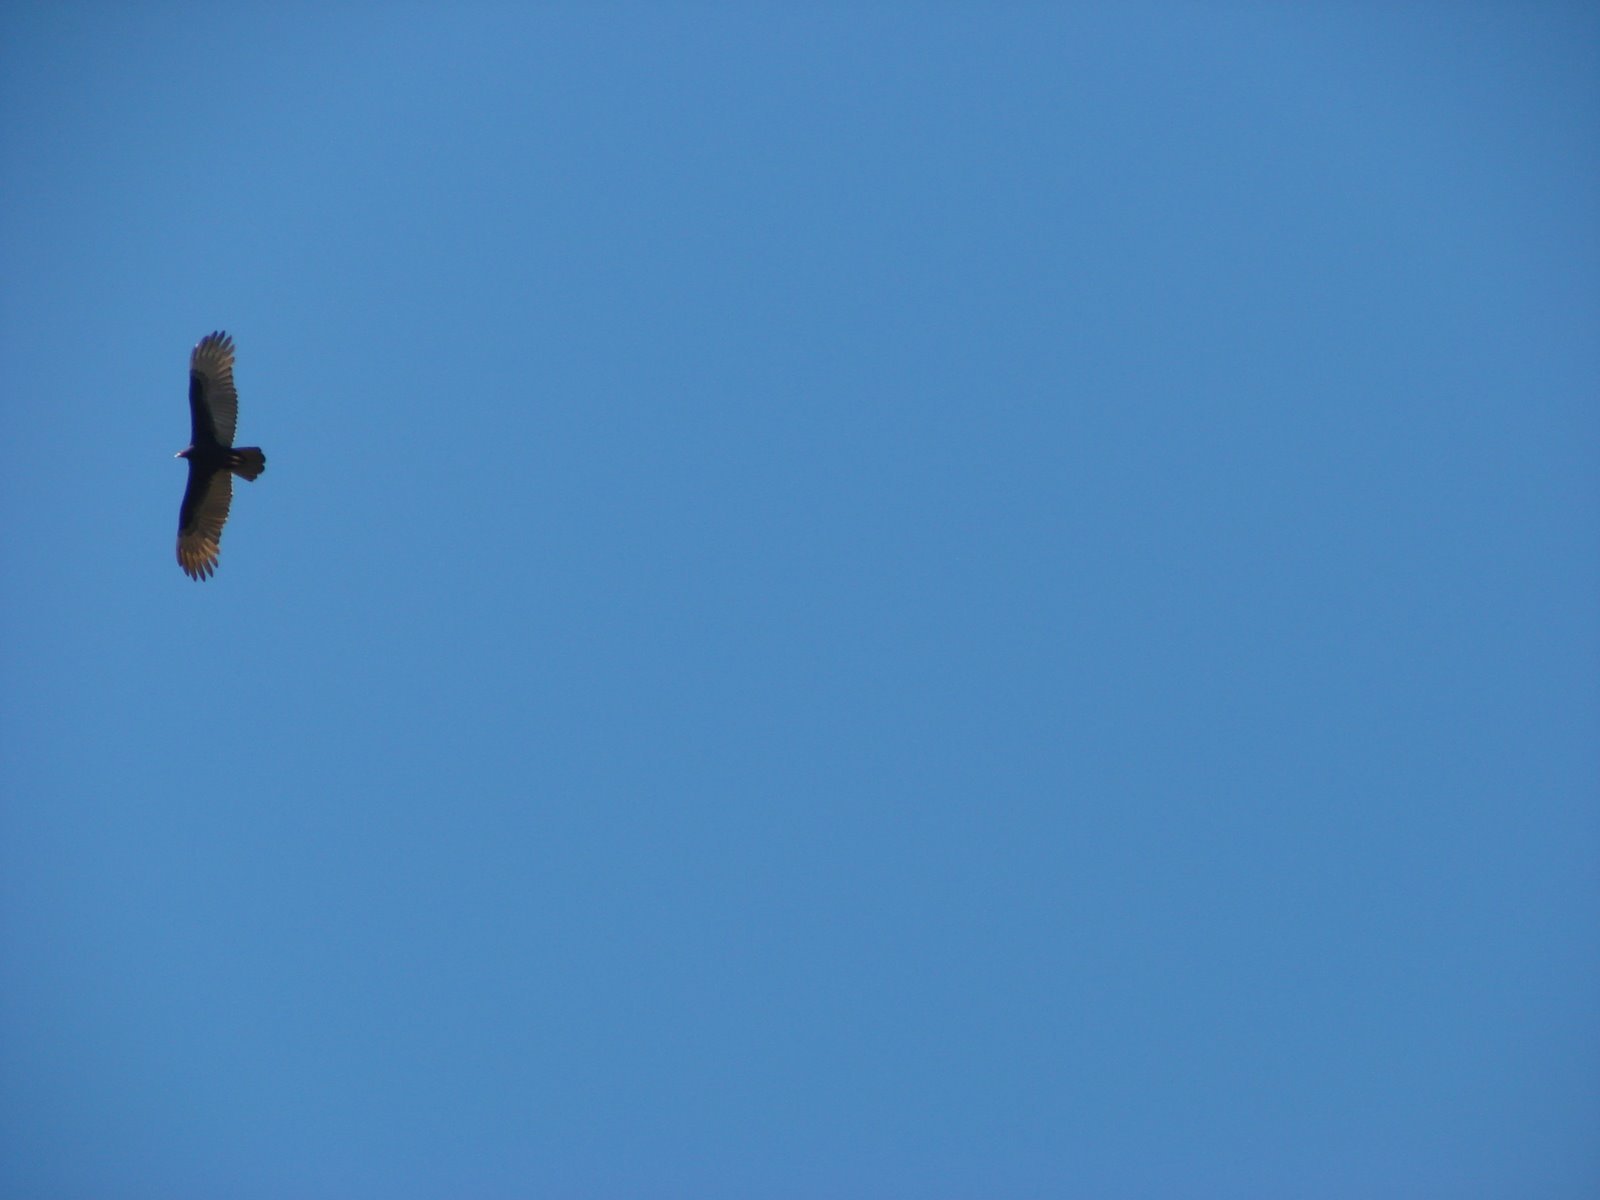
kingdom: Animalia
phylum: Chordata
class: Aves
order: Accipitriformes
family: Cathartidae
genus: Cathartes
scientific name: Cathartes aura
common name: Turkey vulture
